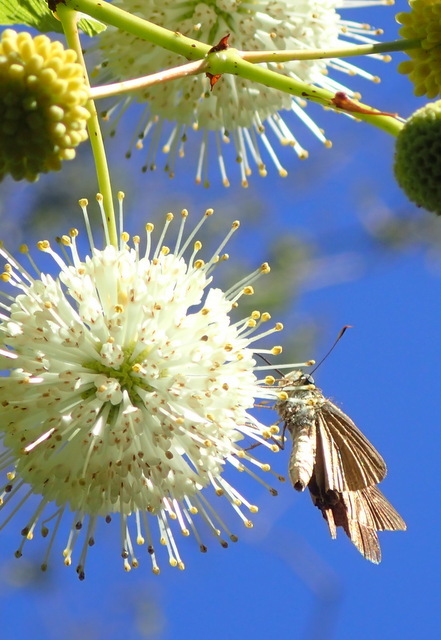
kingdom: Animalia
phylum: Arthropoda
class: Insecta
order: Lepidoptera
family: Hesperiidae
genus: Panoquina
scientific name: Panoquina ocola
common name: Ocola skipper
